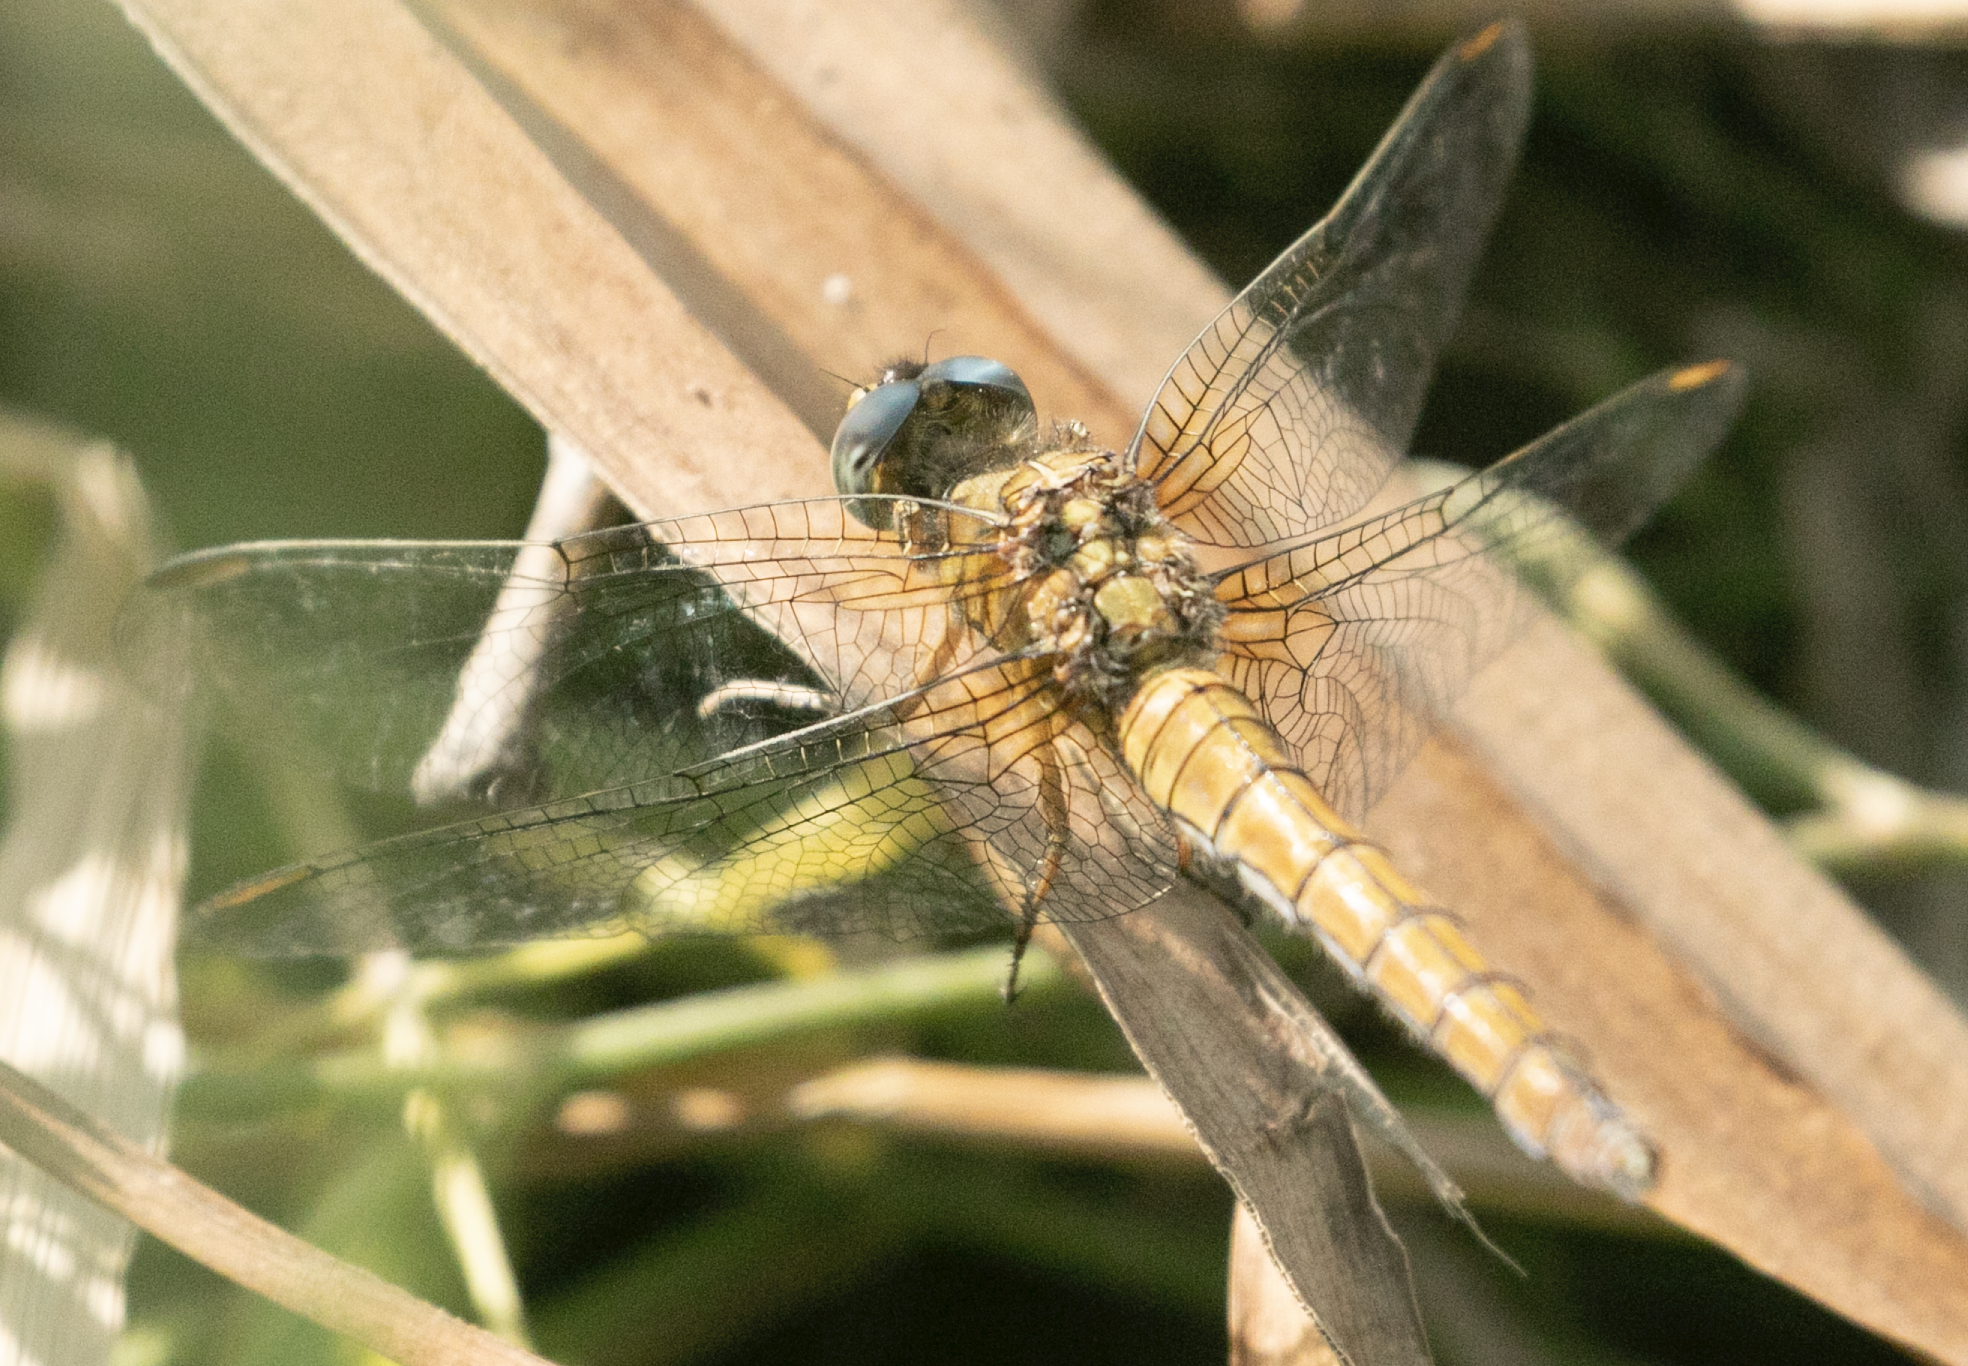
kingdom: Animalia
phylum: Arthropoda
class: Insecta
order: Odonata
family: Libellulidae
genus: Orthetrum
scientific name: Orthetrum coerulescens
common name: Keeled skimmer
